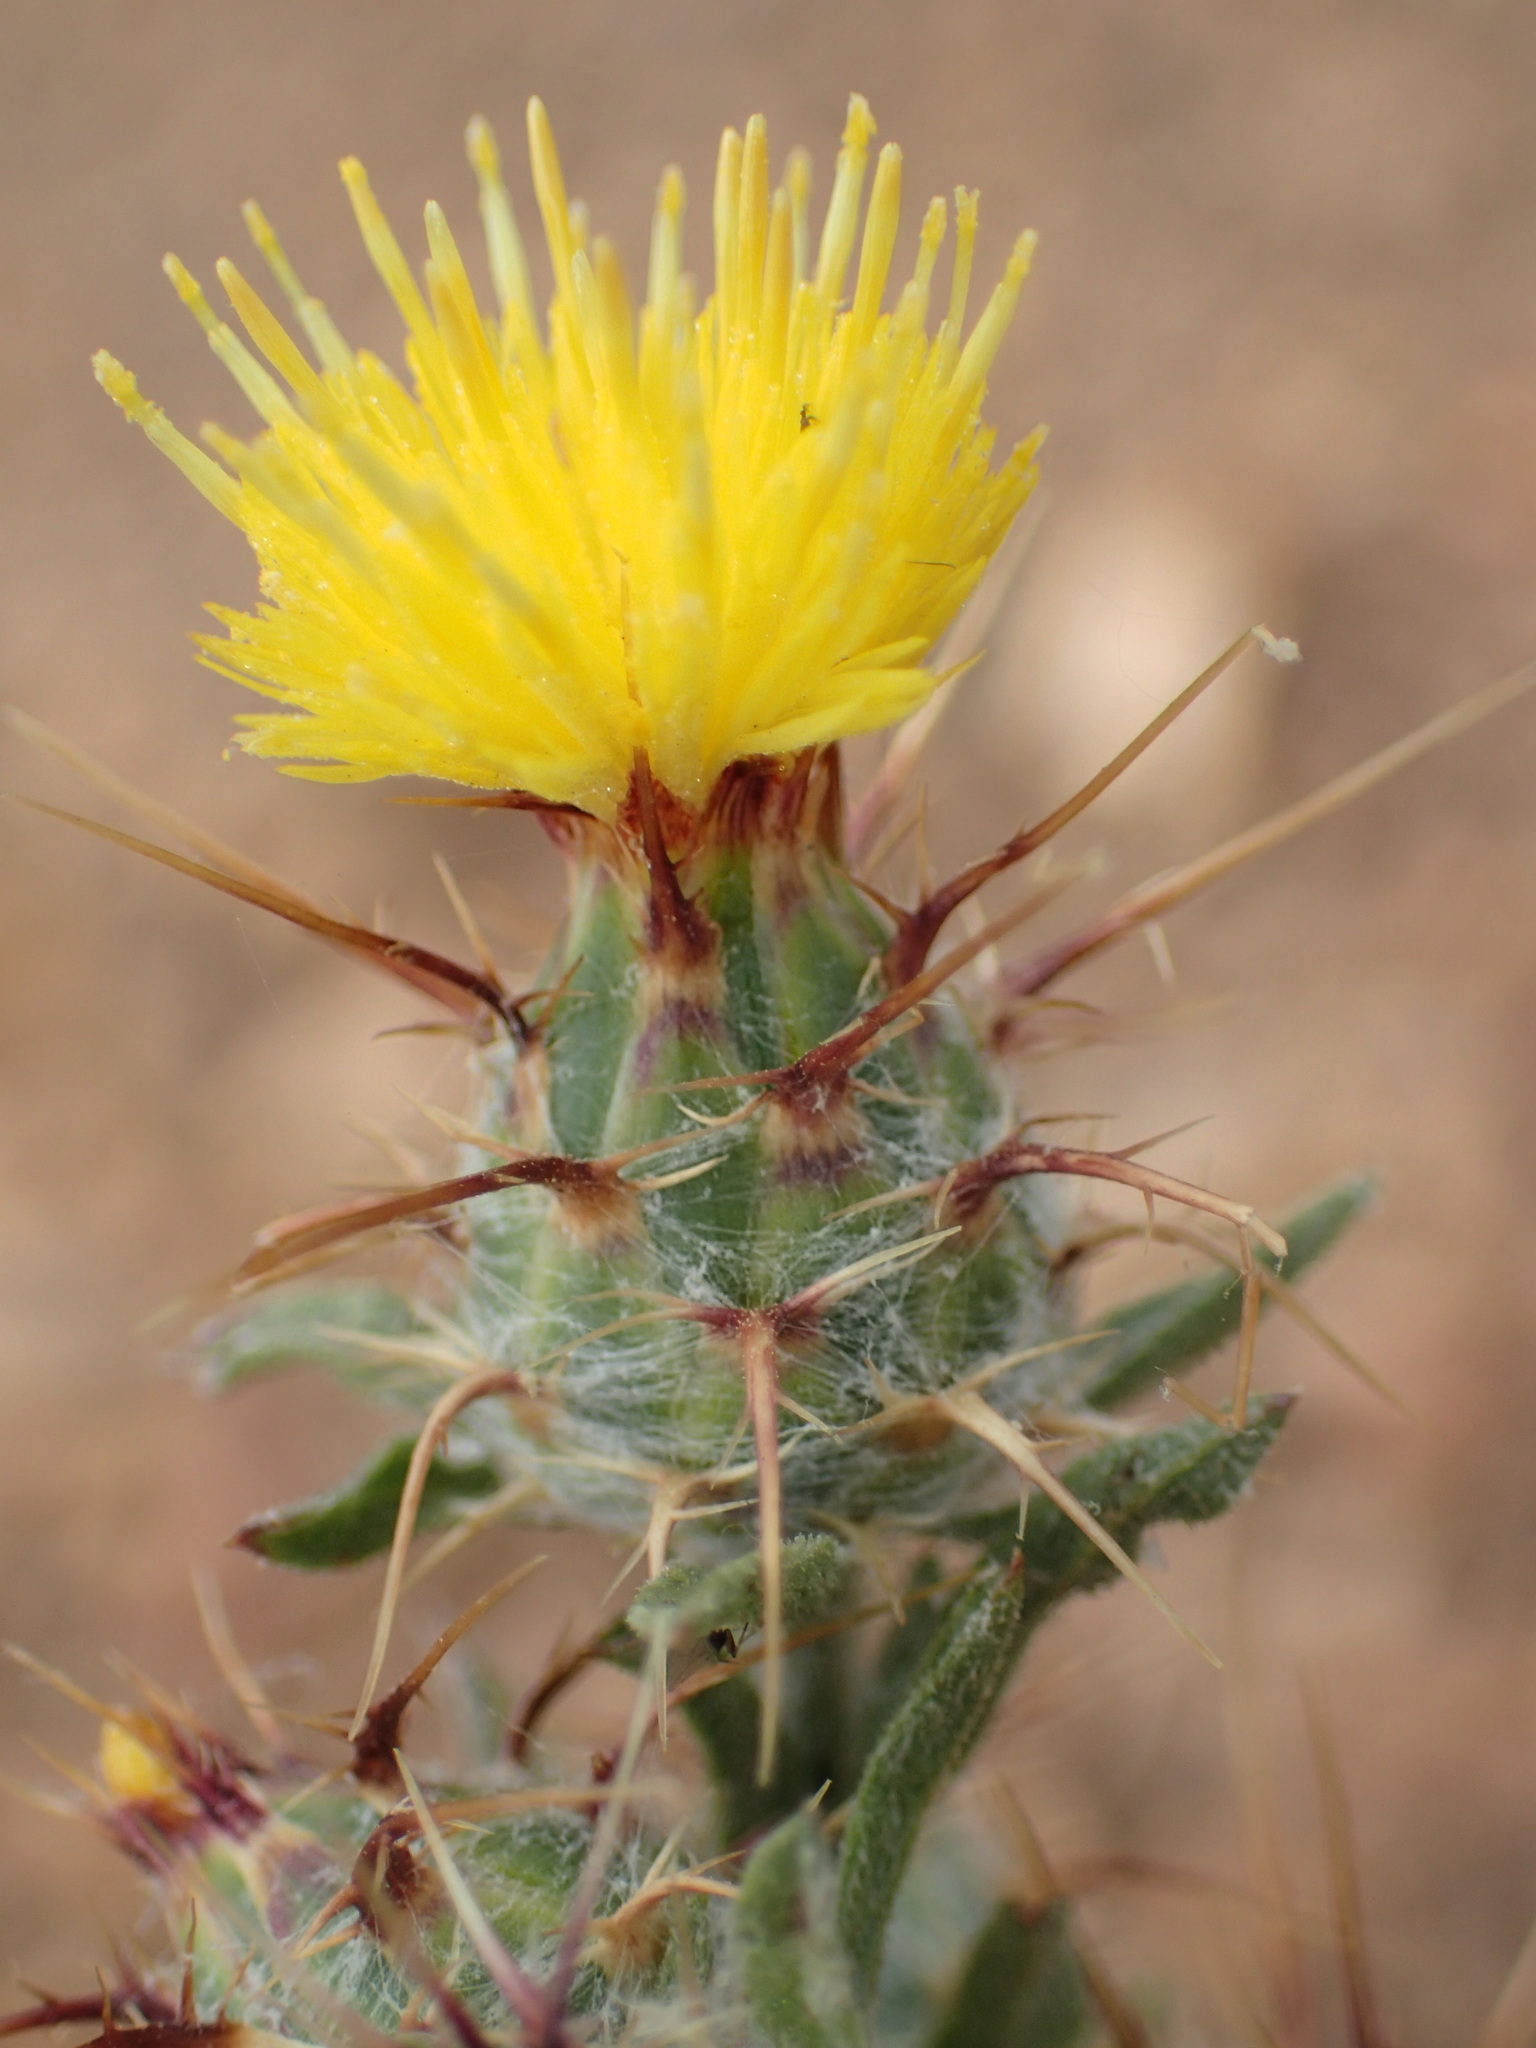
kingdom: Plantae
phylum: Tracheophyta
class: Magnoliopsida
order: Asterales
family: Asteraceae
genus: Centaurea
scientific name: Centaurea melitensis
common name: Maltese star-thistle
